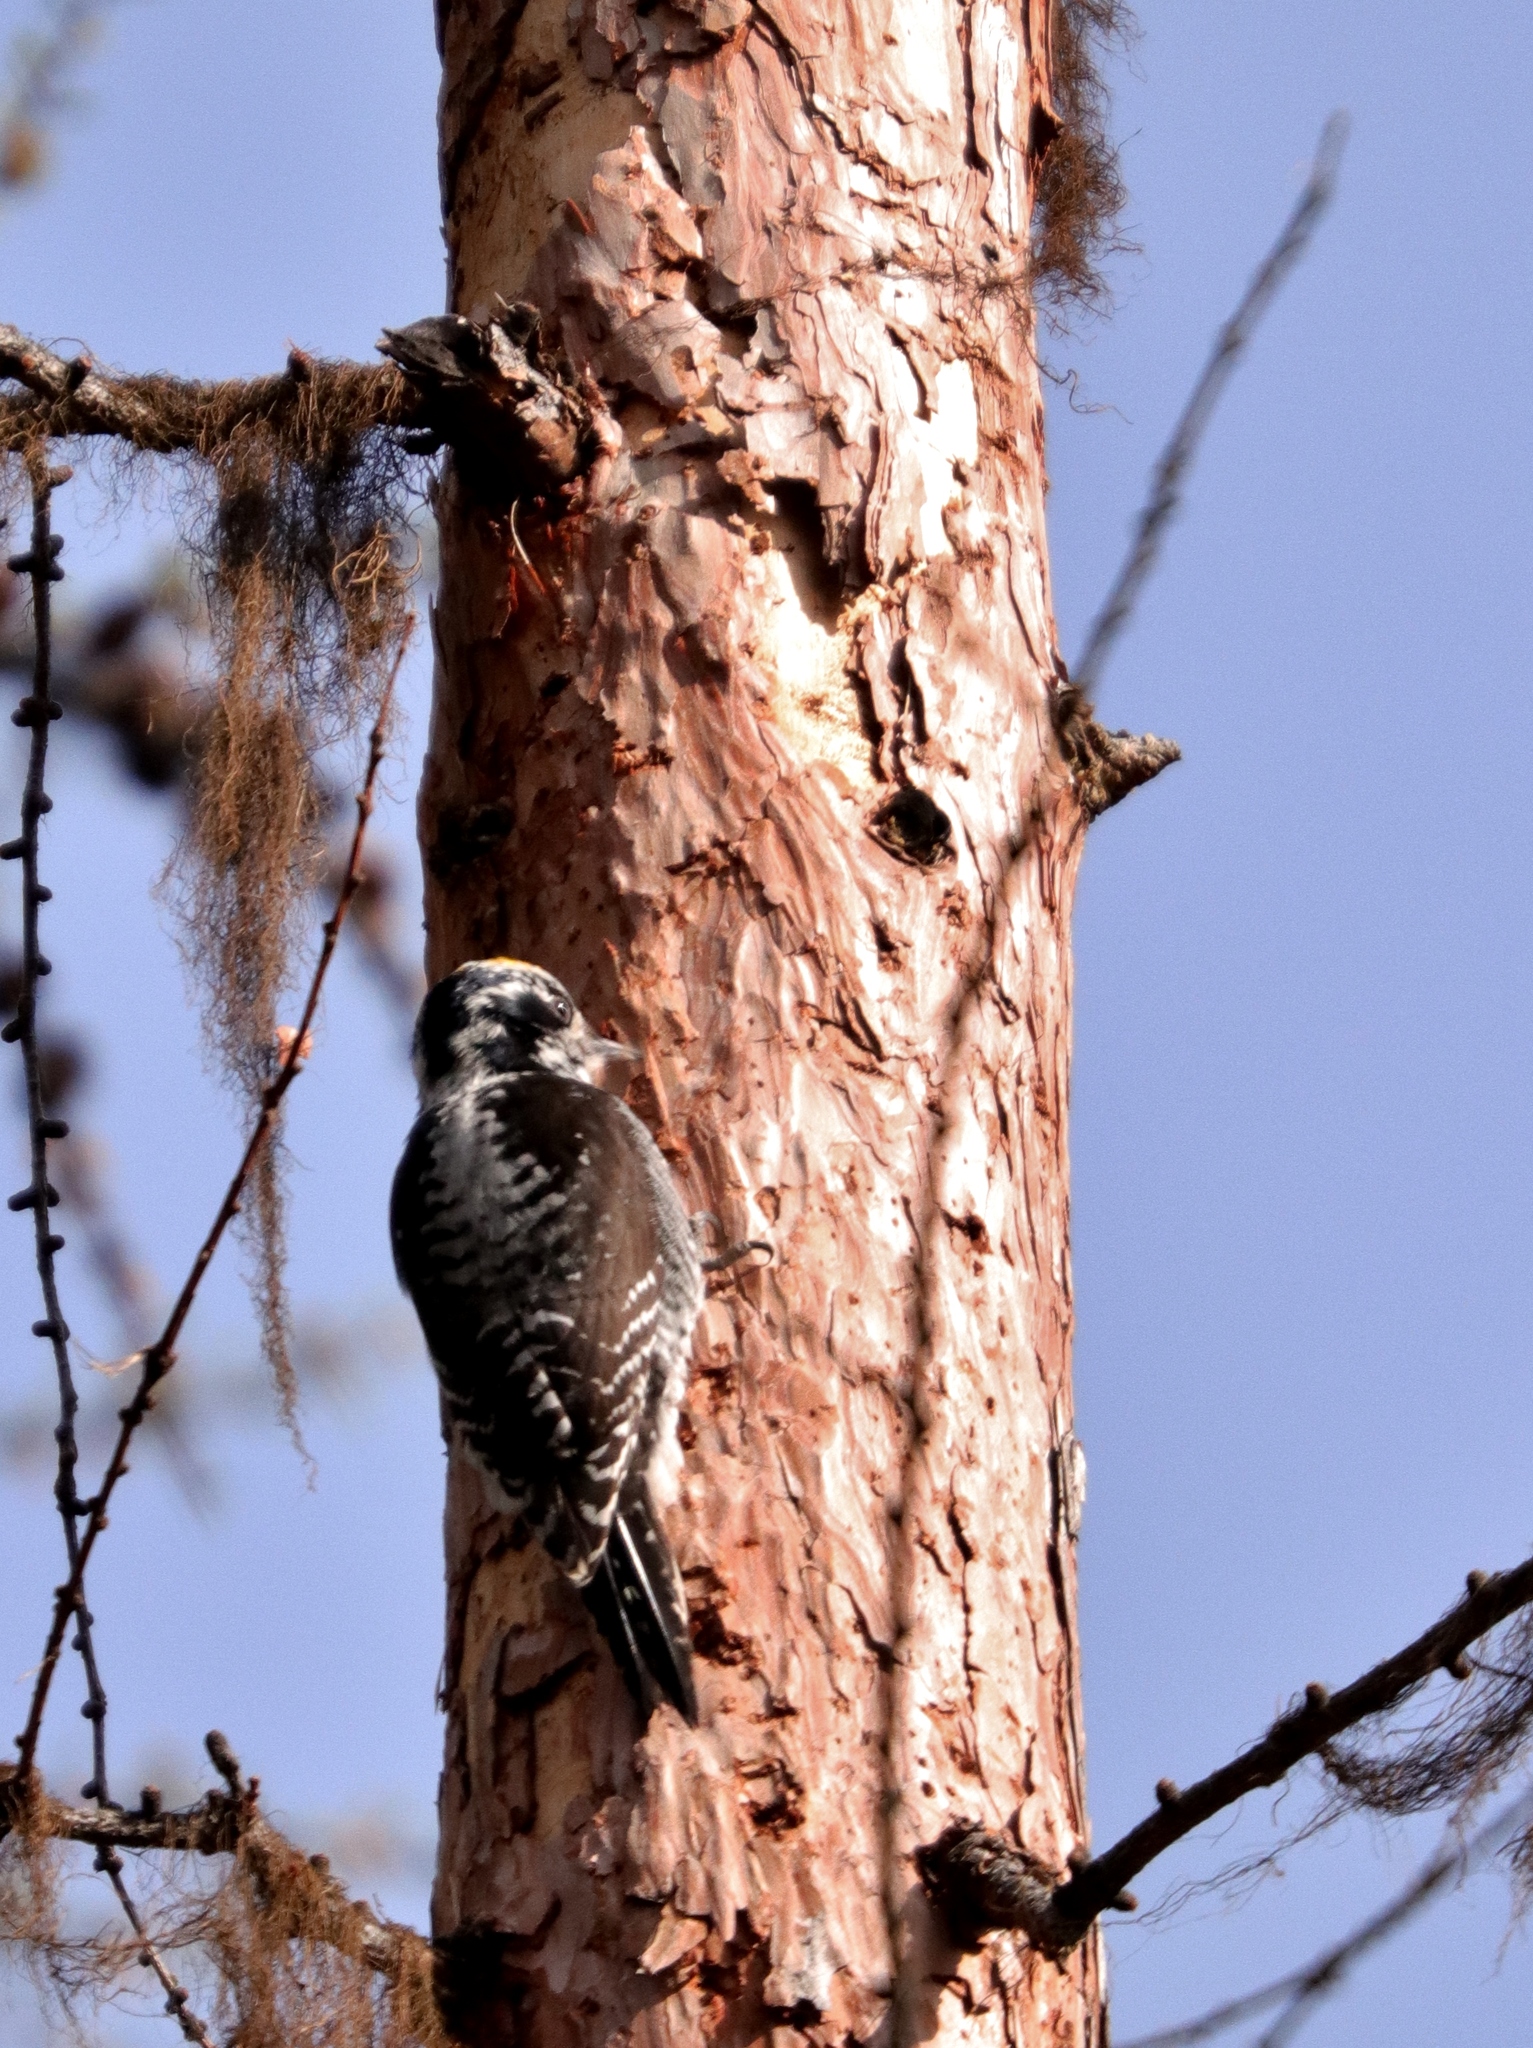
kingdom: Animalia
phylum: Chordata
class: Aves
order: Piciformes
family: Picidae
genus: Picoides
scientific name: Picoides dorsalis
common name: American three-toed woodpecker
